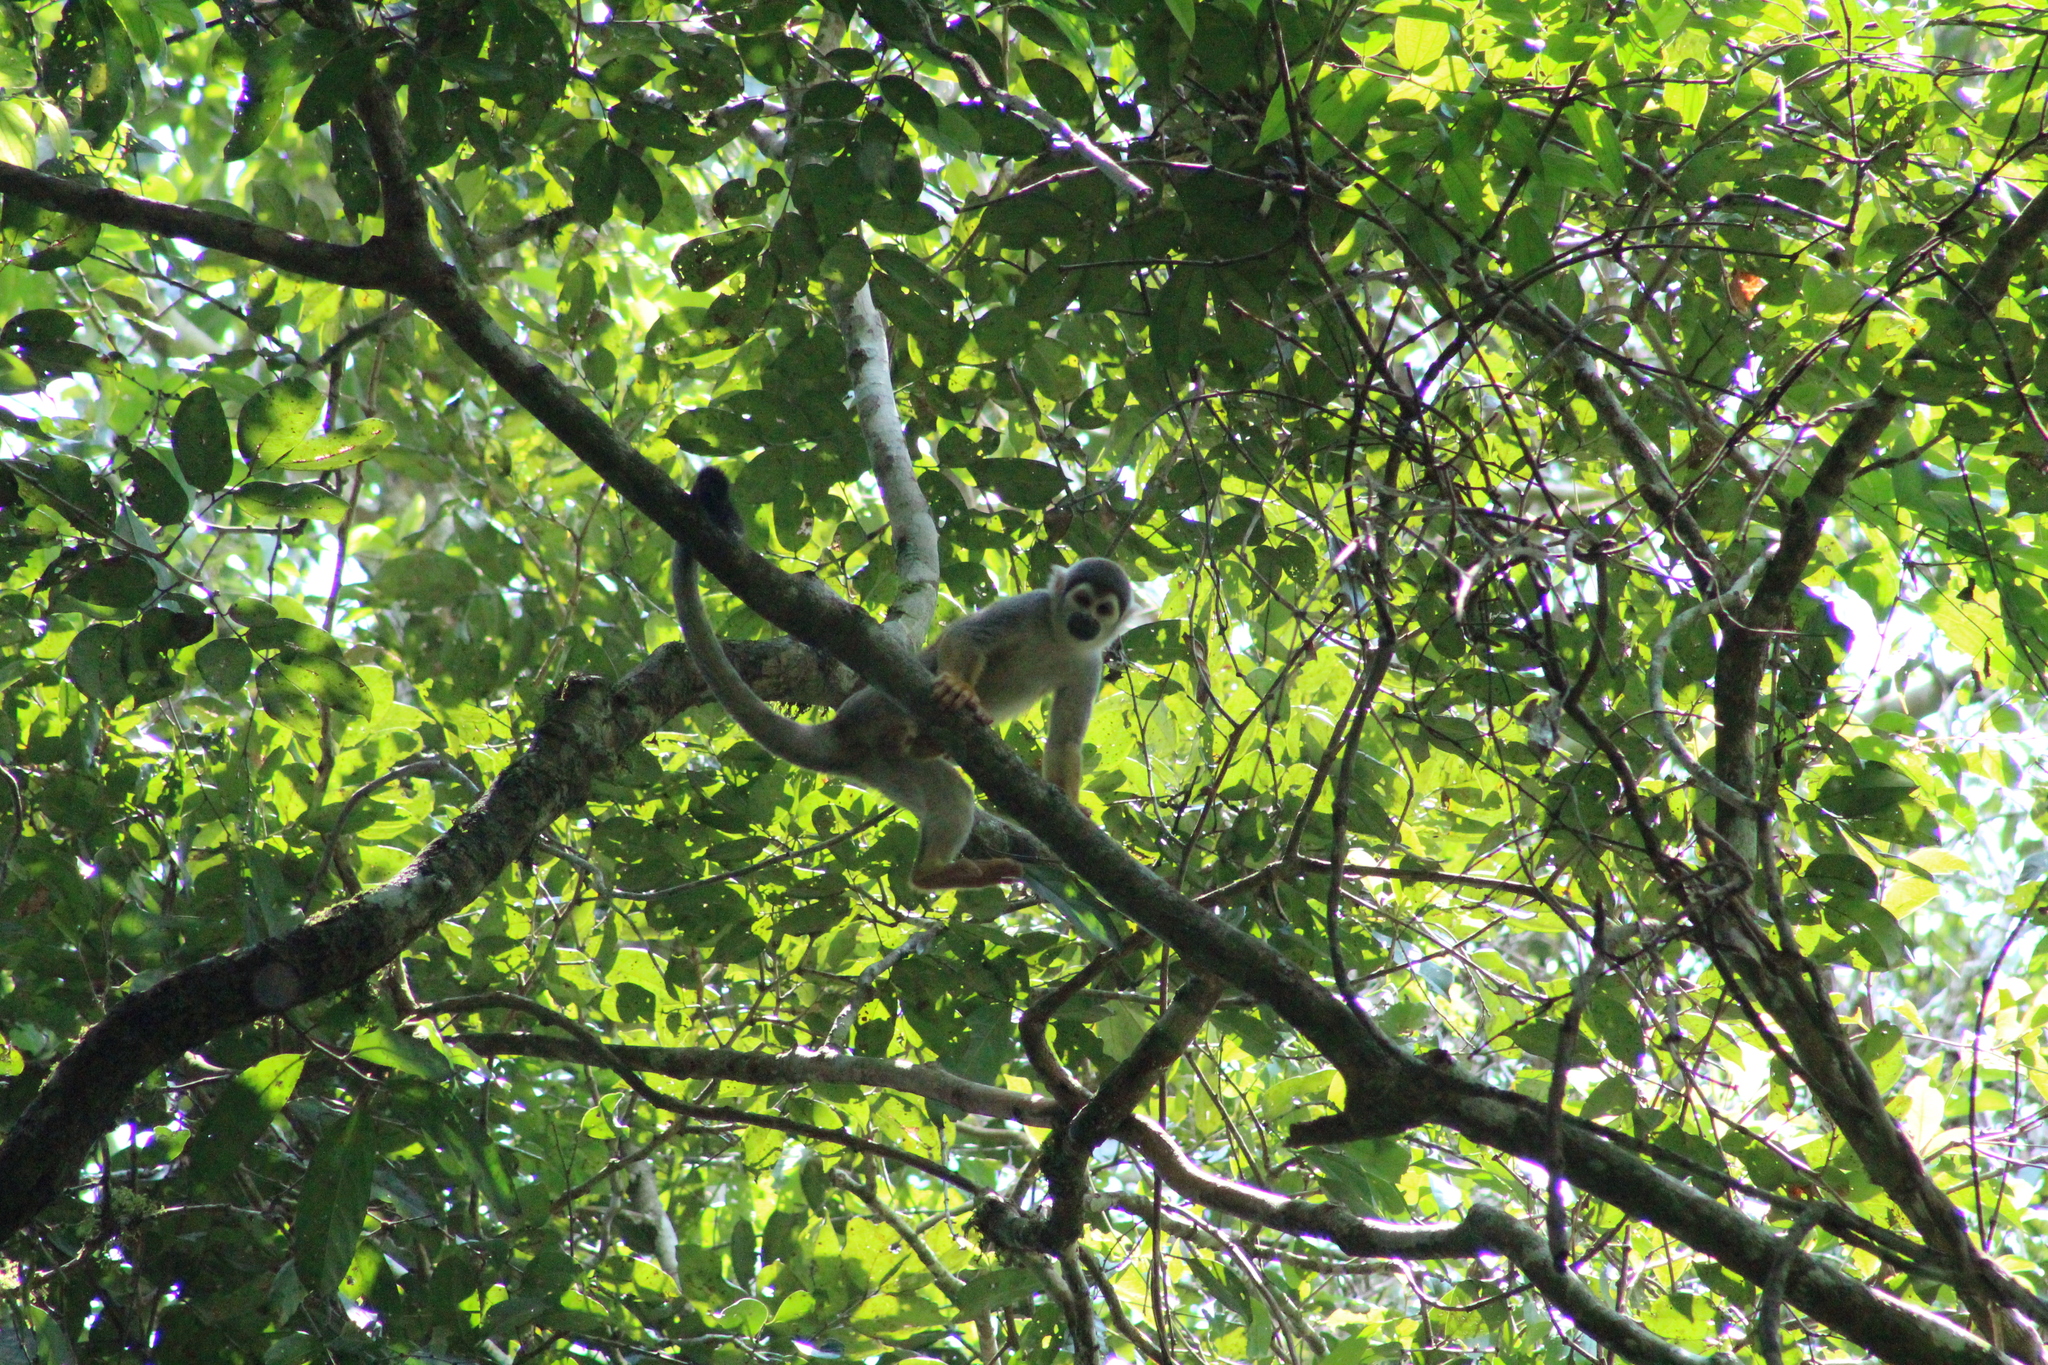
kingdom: Animalia
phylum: Chordata
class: Mammalia
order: Primates
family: Cebidae
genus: Saimiri
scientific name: Saimiri cassiquiarensis
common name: Humboldt’s squirrel monkey
